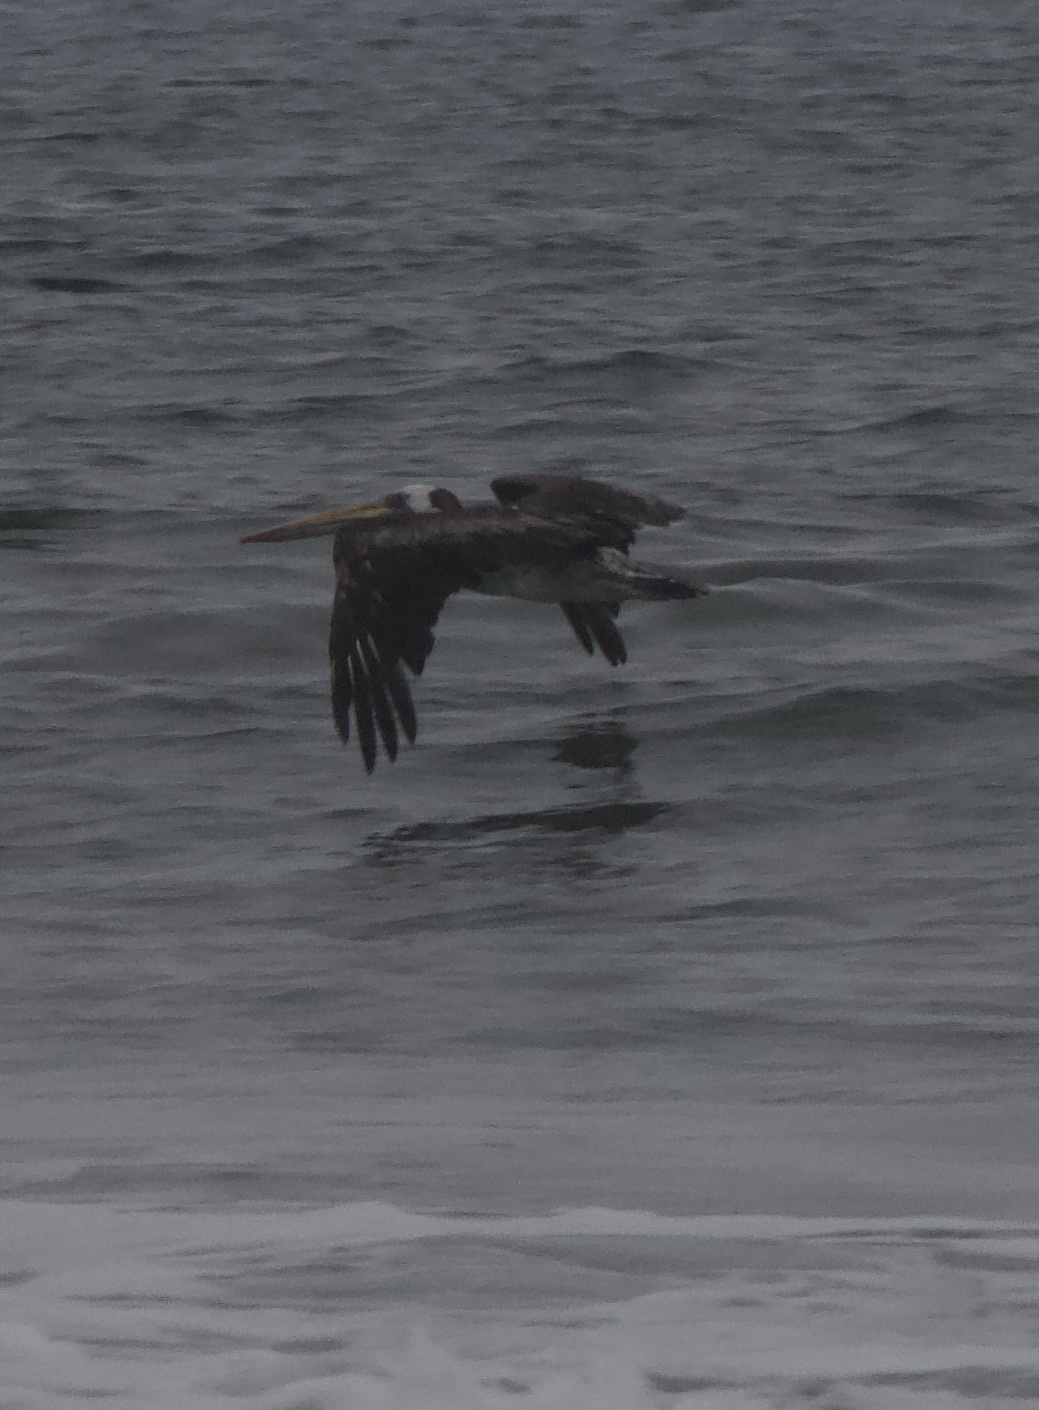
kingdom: Animalia
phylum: Chordata
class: Aves
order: Pelecaniformes
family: Pelecanidae
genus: Pelecanus
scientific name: Pelecanus thagus
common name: Peruvian pelican
